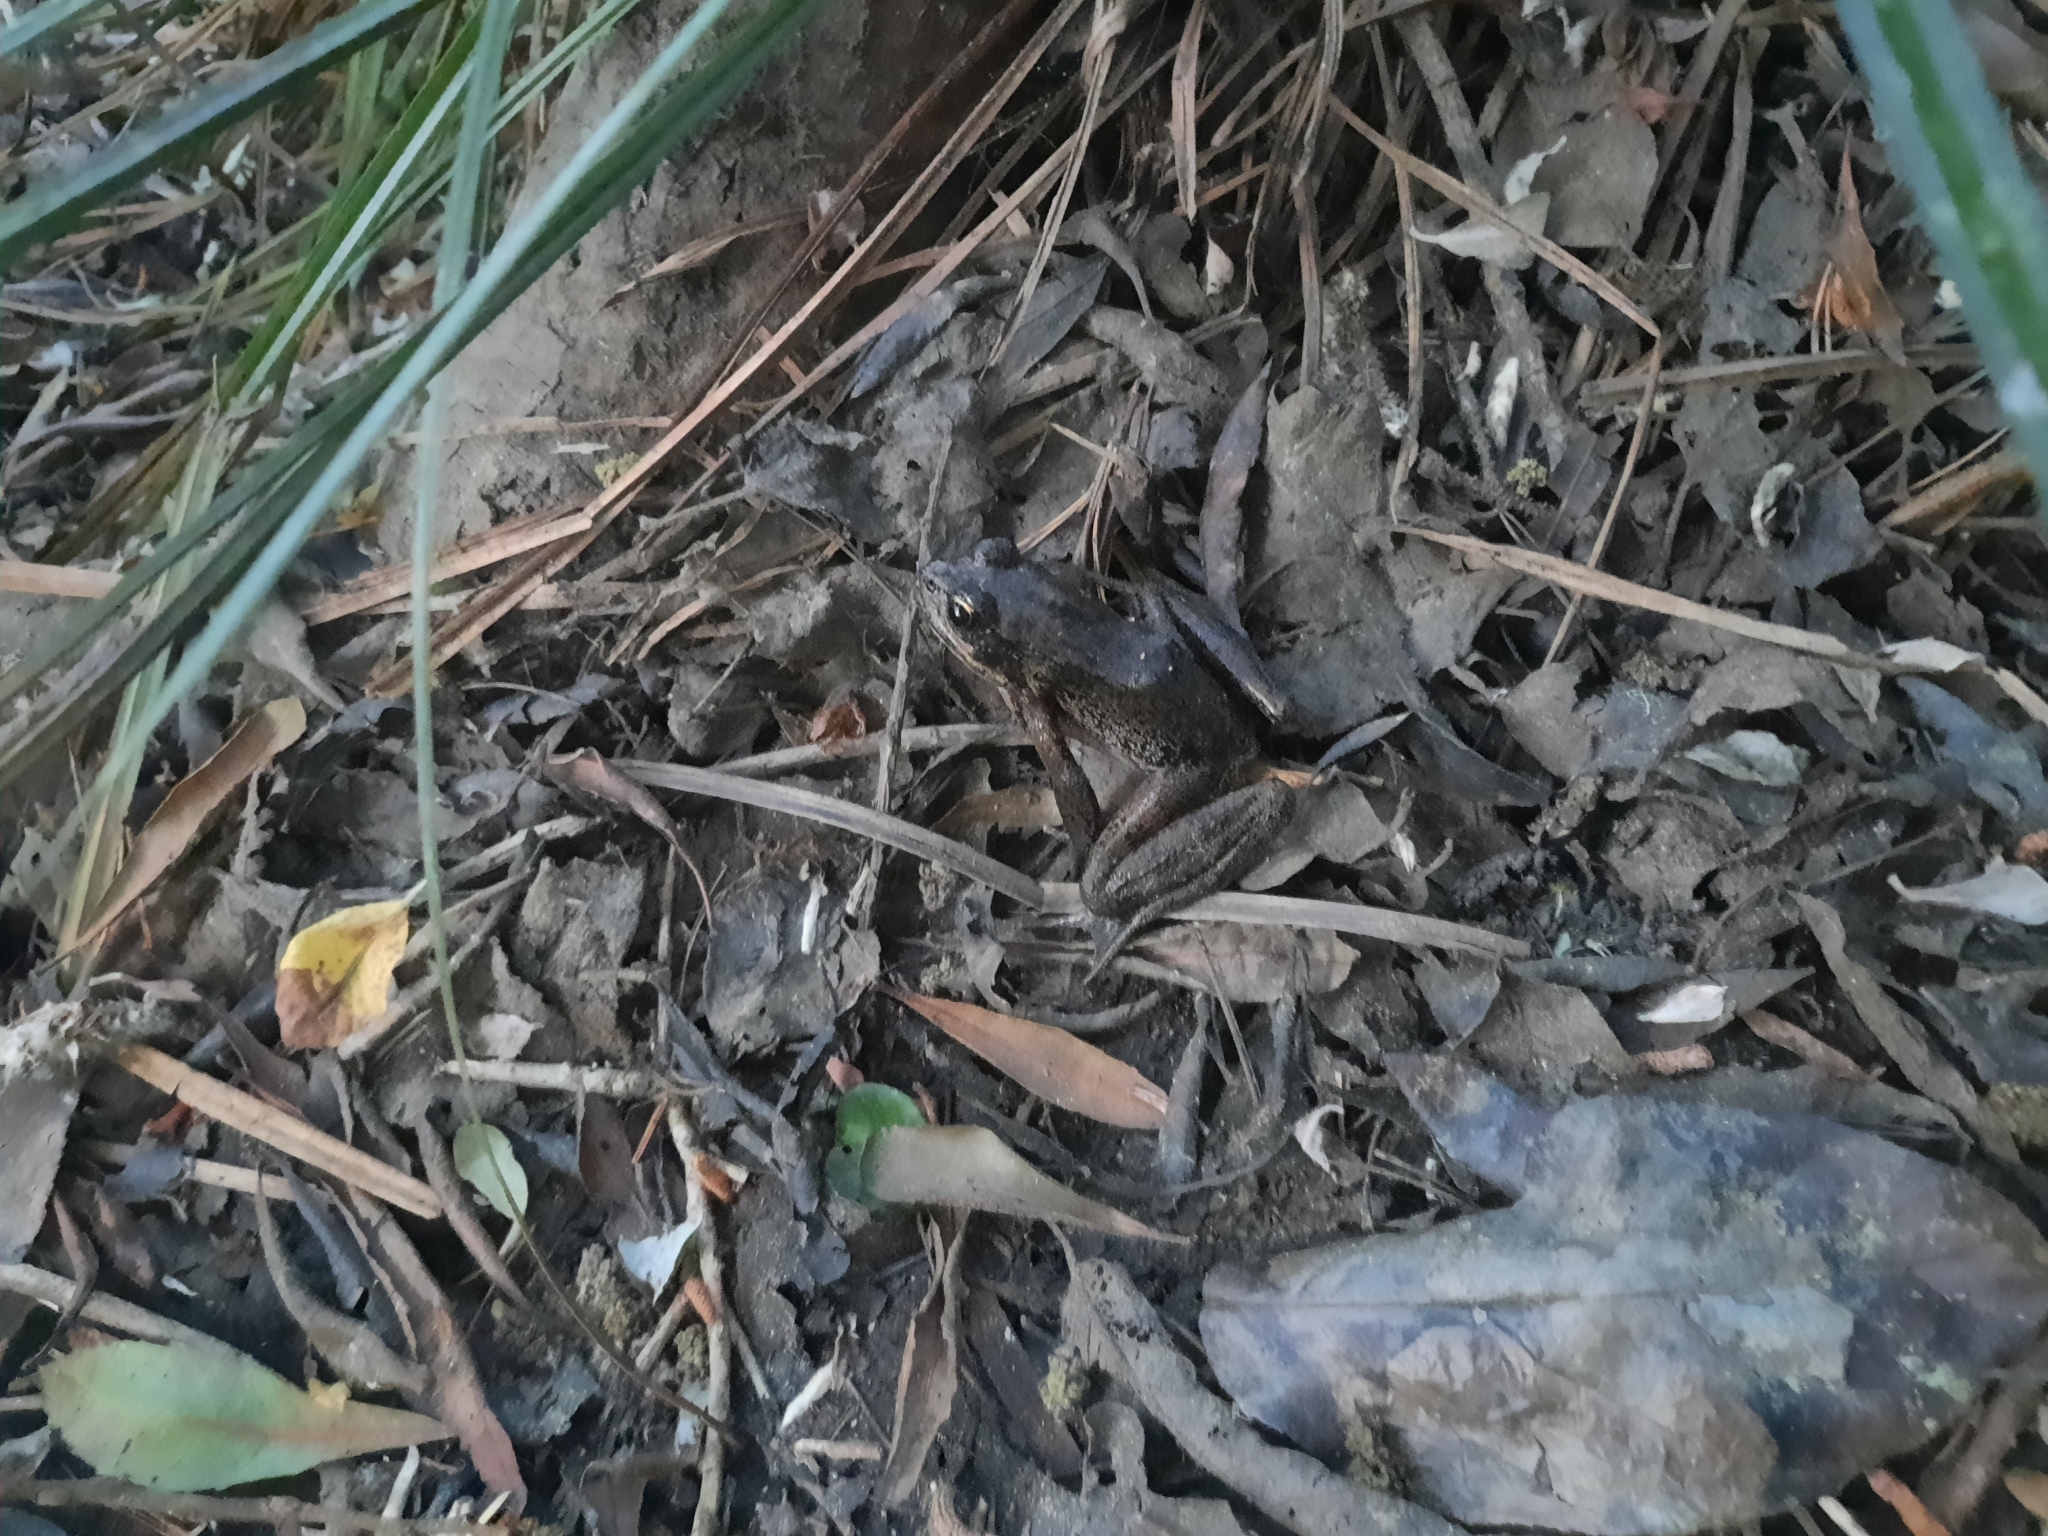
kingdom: Animalia
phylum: Chordata
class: Amphibia
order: Anura
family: Ranidae
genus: Rana
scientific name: Rana aurora
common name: Red-legged frog
